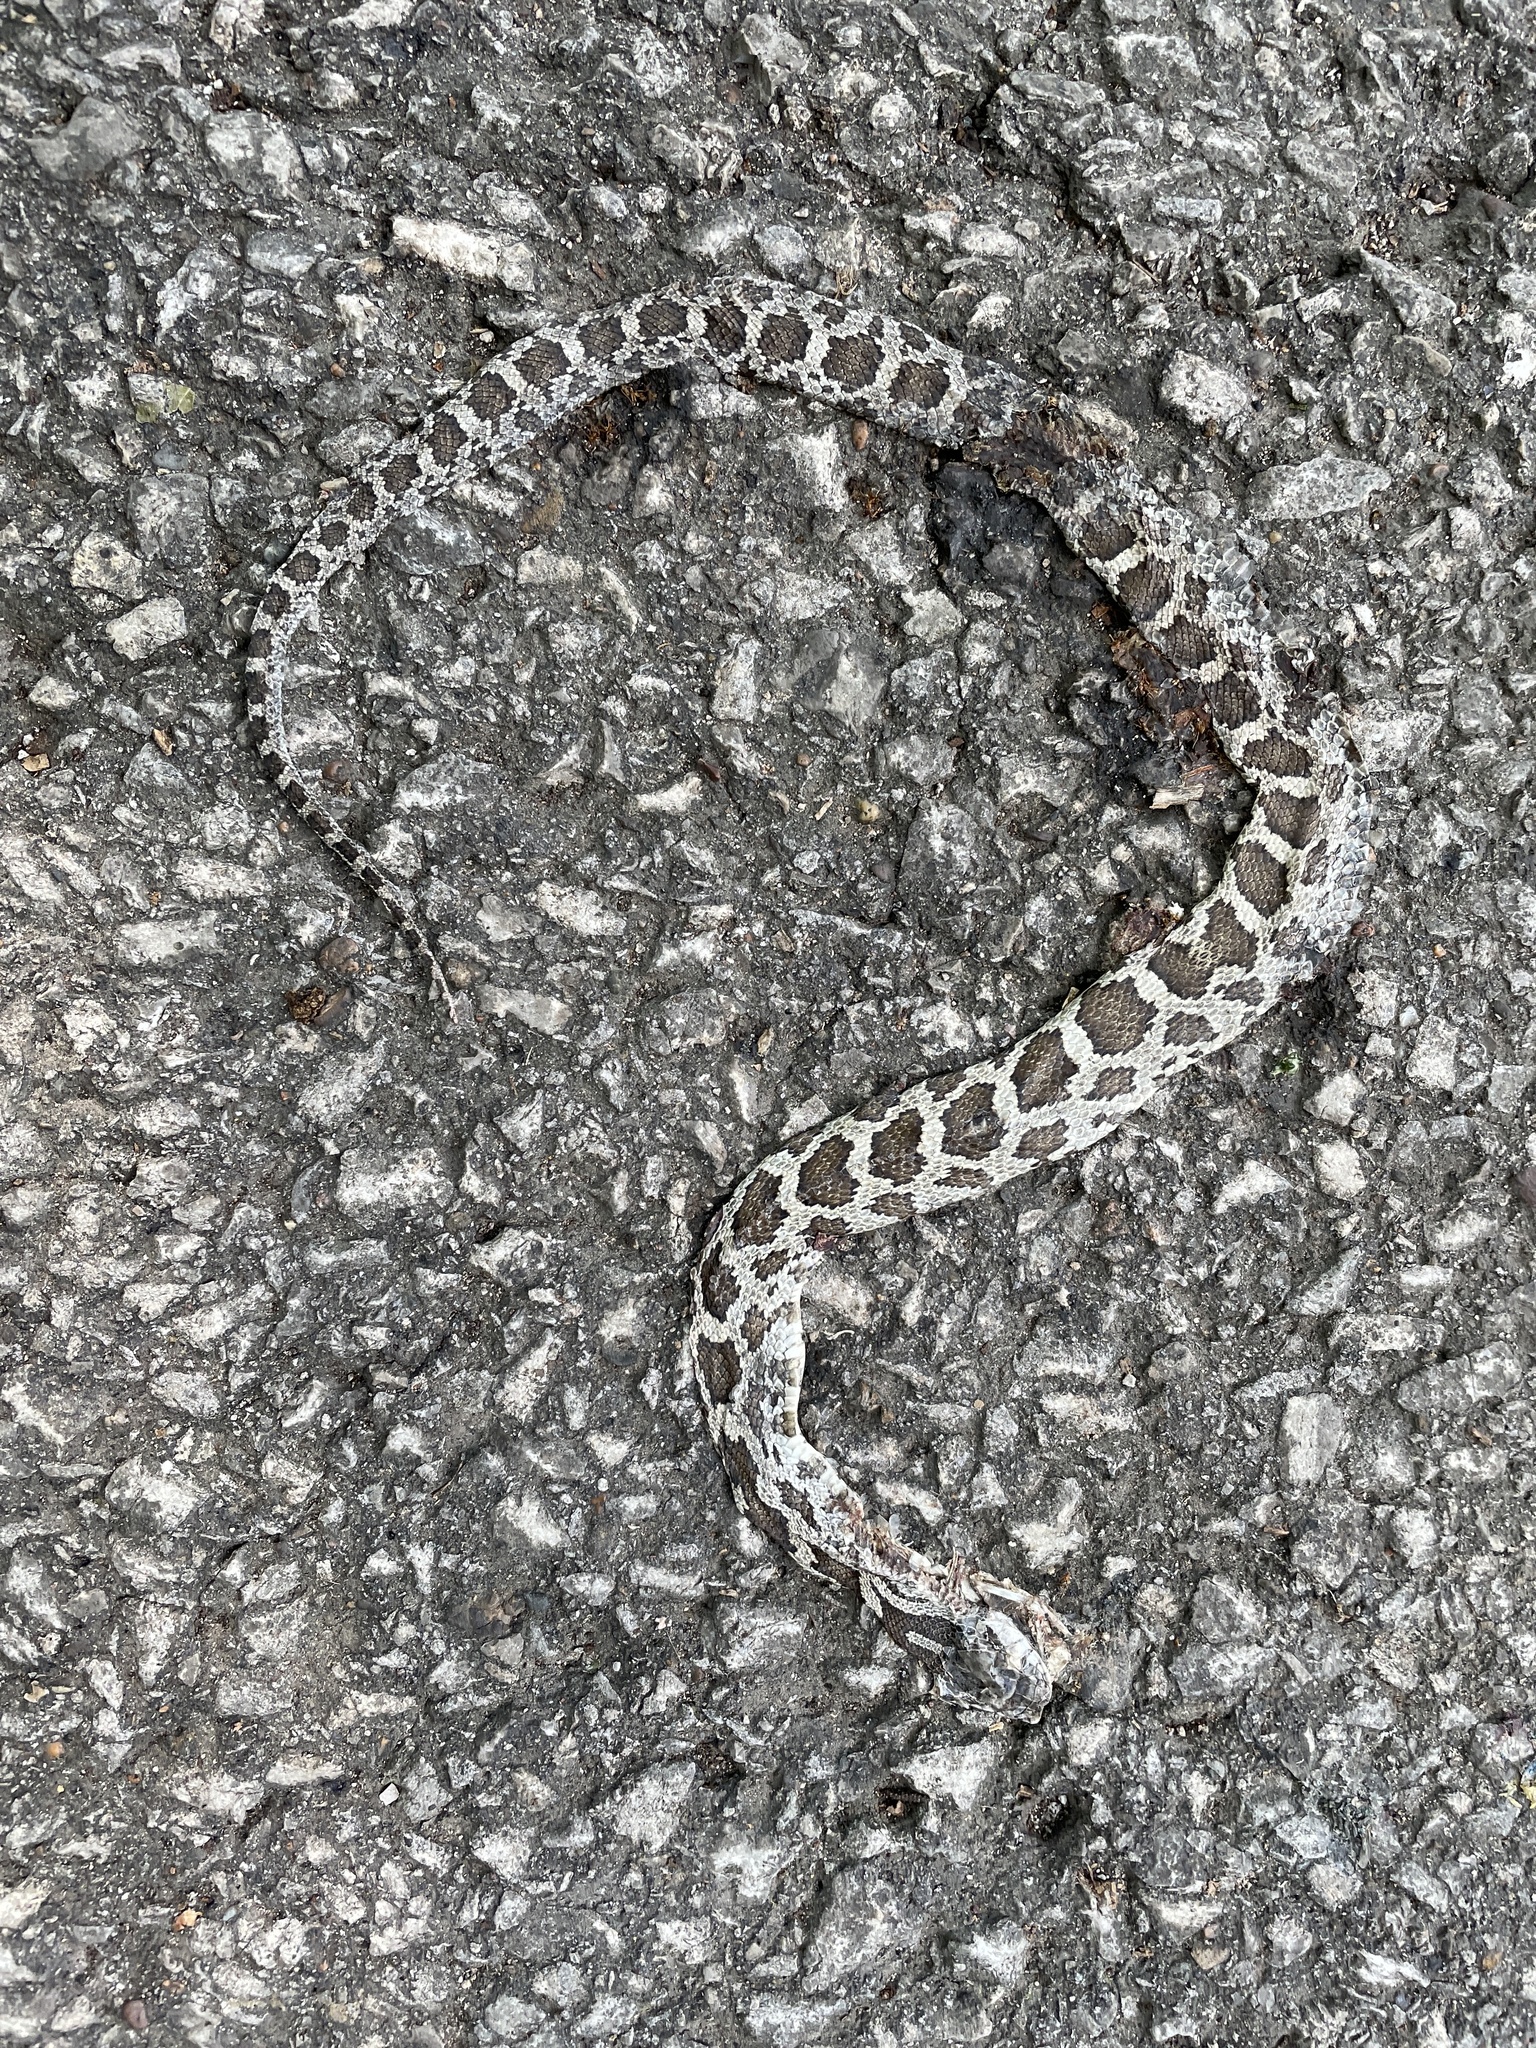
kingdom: Animalia
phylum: Chordata
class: Squamata
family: Colubridae
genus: Pantherophis
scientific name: Pantherophis spiloides
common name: Gray rat snake
